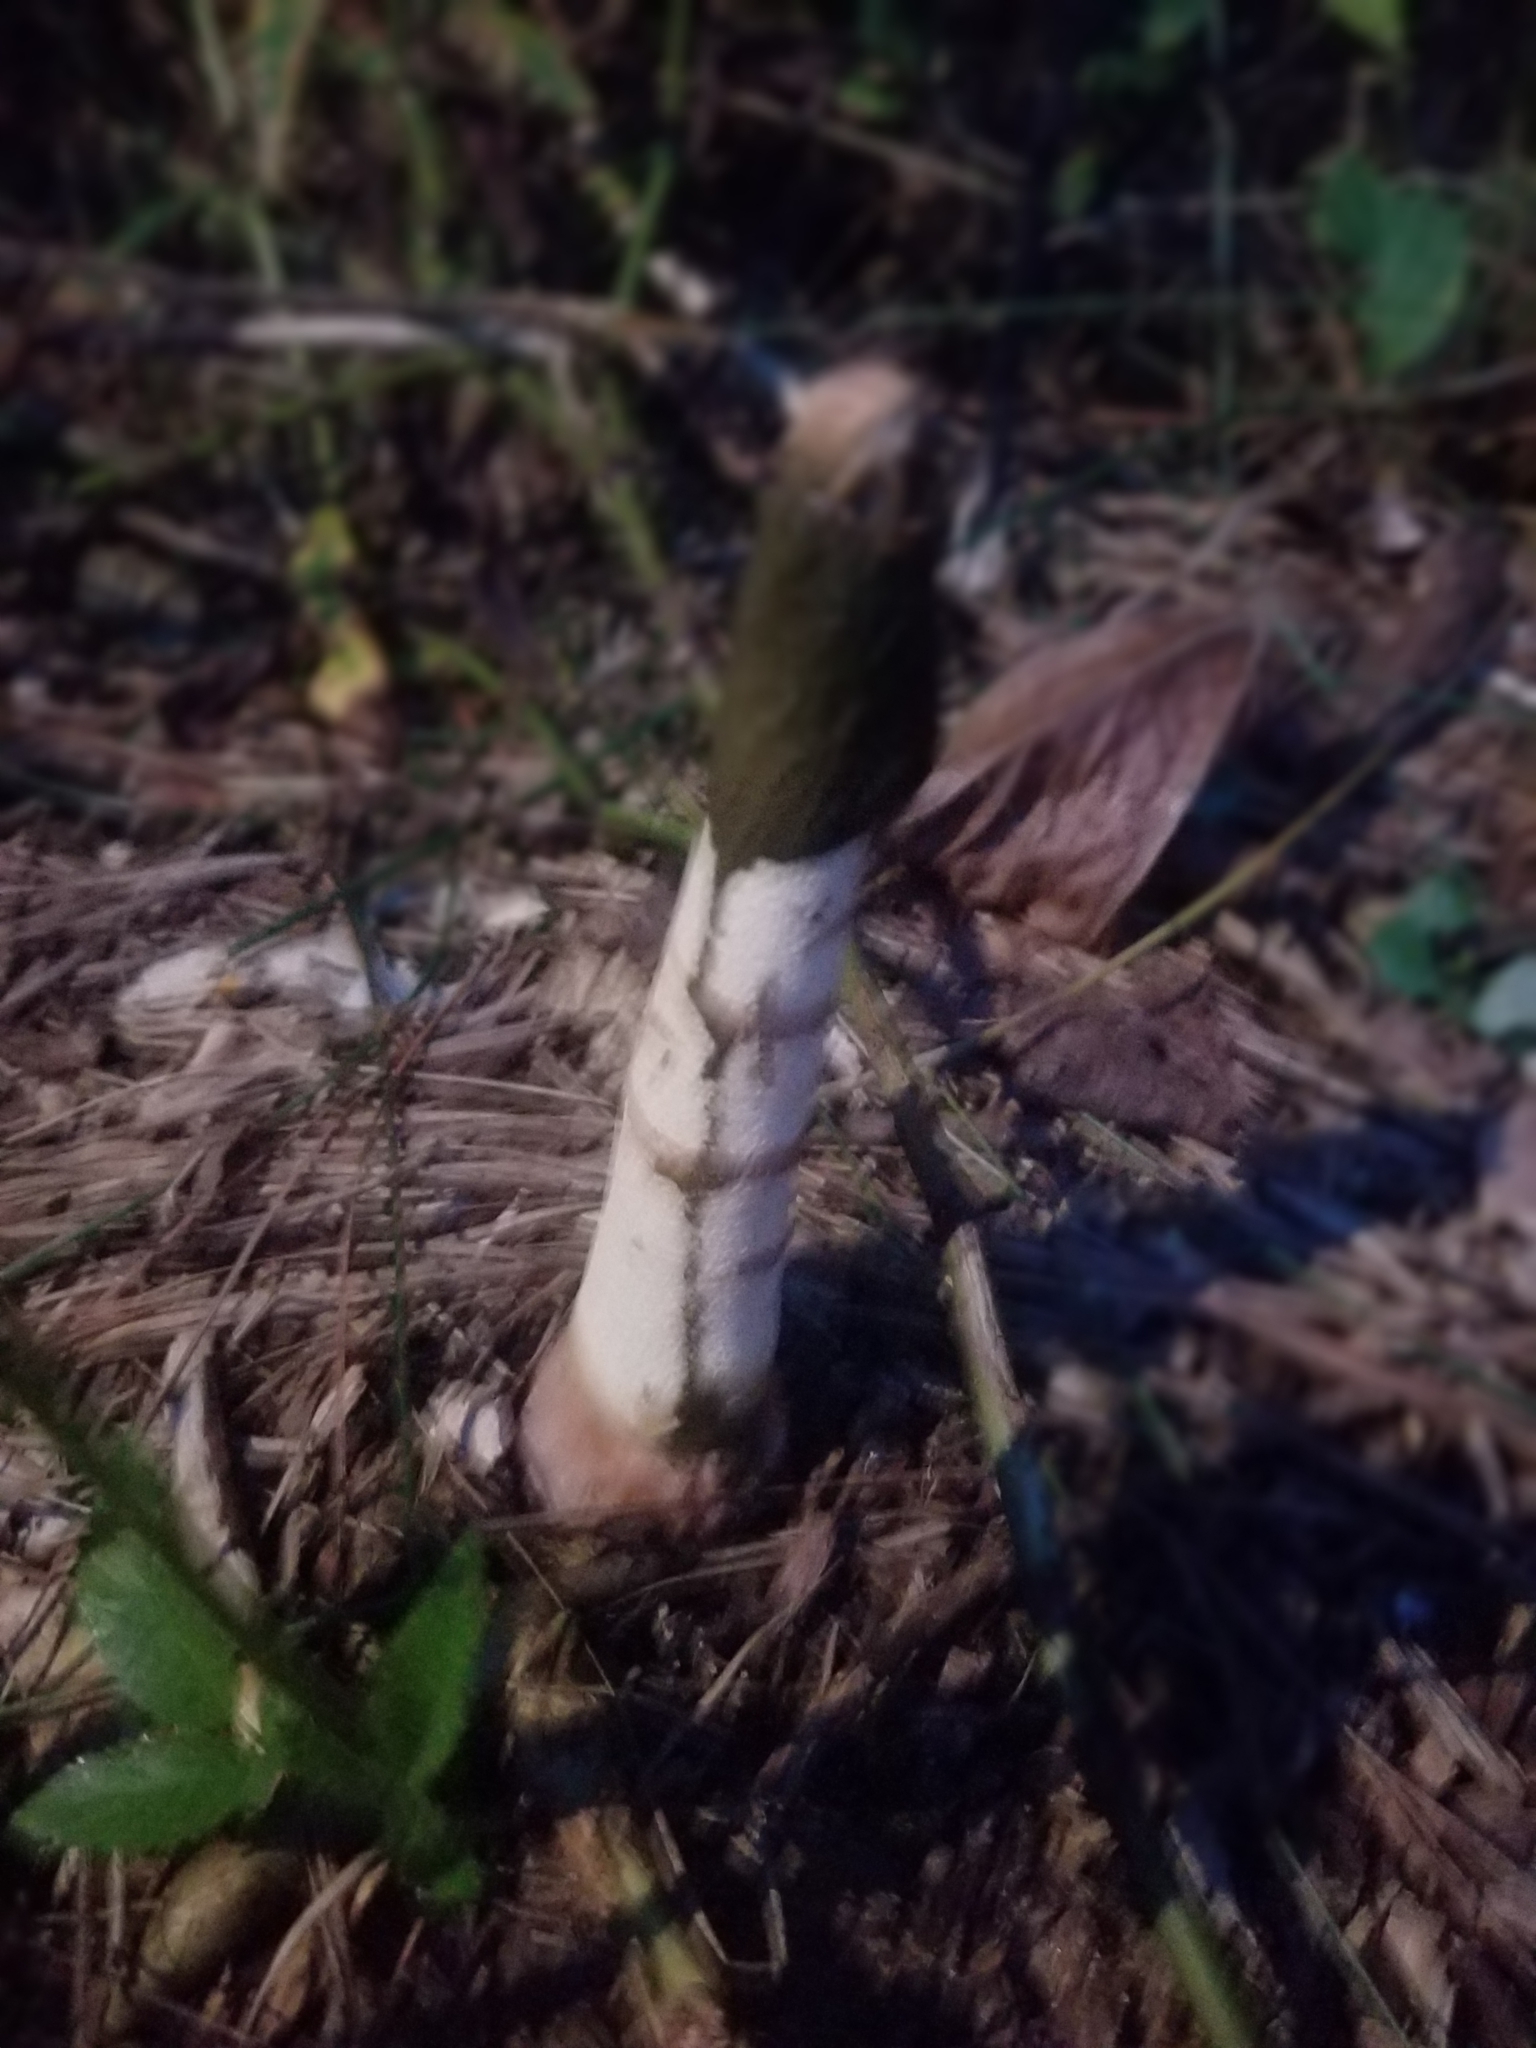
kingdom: Fungi
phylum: Basidiomycota
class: Agaricomycetes
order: Phallales
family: Phallaceae
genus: Phallus
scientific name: Phallus ravenelii
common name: Ravenel's stinkhorn
